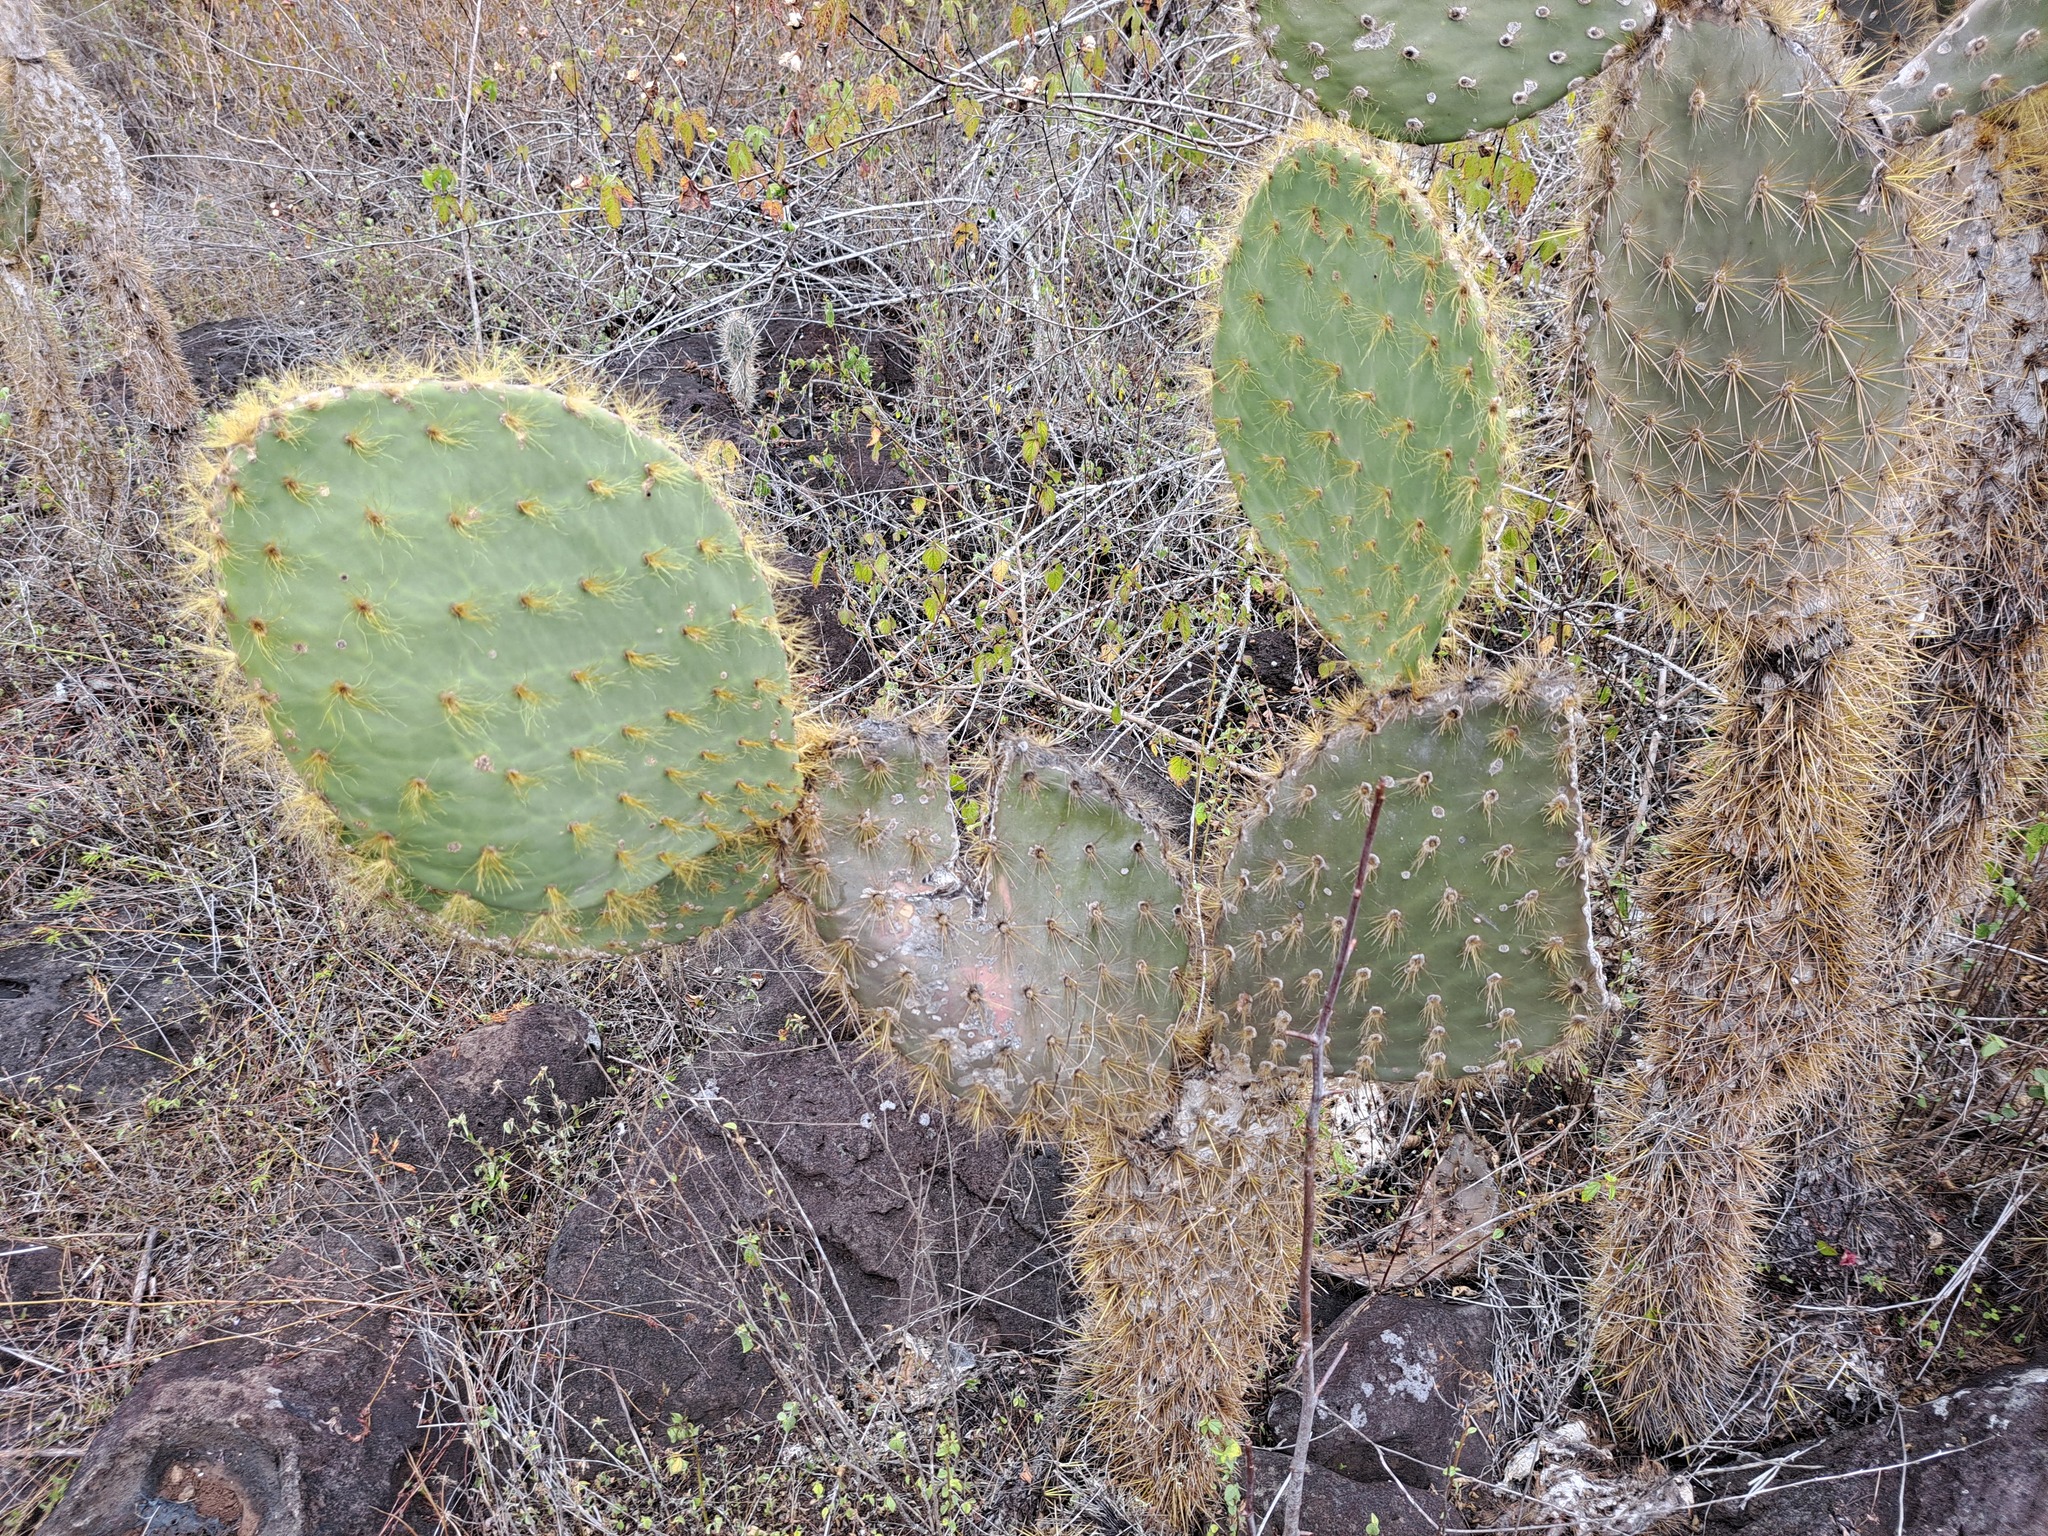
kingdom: Plantae
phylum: Tracheophyta
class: Magnoliopsida
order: Caryophyllales
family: Cactaceae
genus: Opuntia
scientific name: Opuntia galapageia
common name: Galápagos prickly pear
